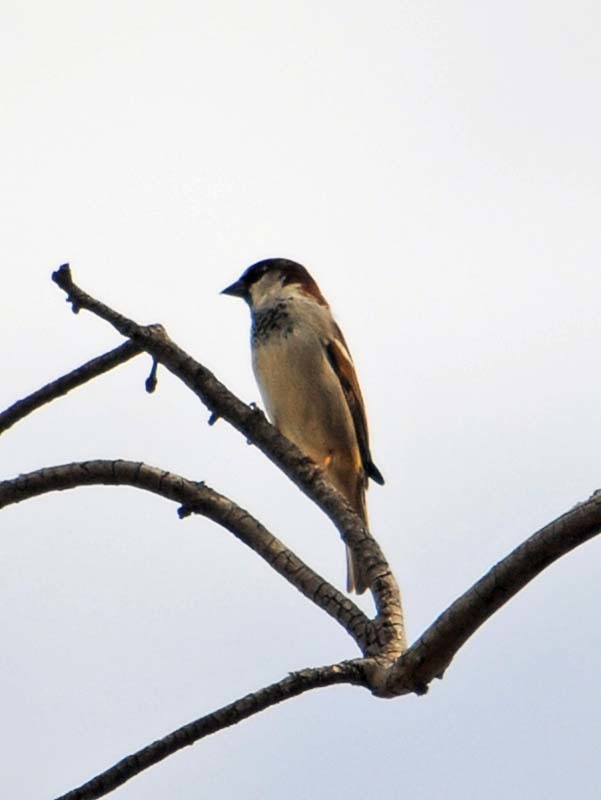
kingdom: Animalia
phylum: Chordata
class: Aves
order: Passeriformes
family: Passeridae
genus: Passer
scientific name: Passer domesticus
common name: House sparrow
